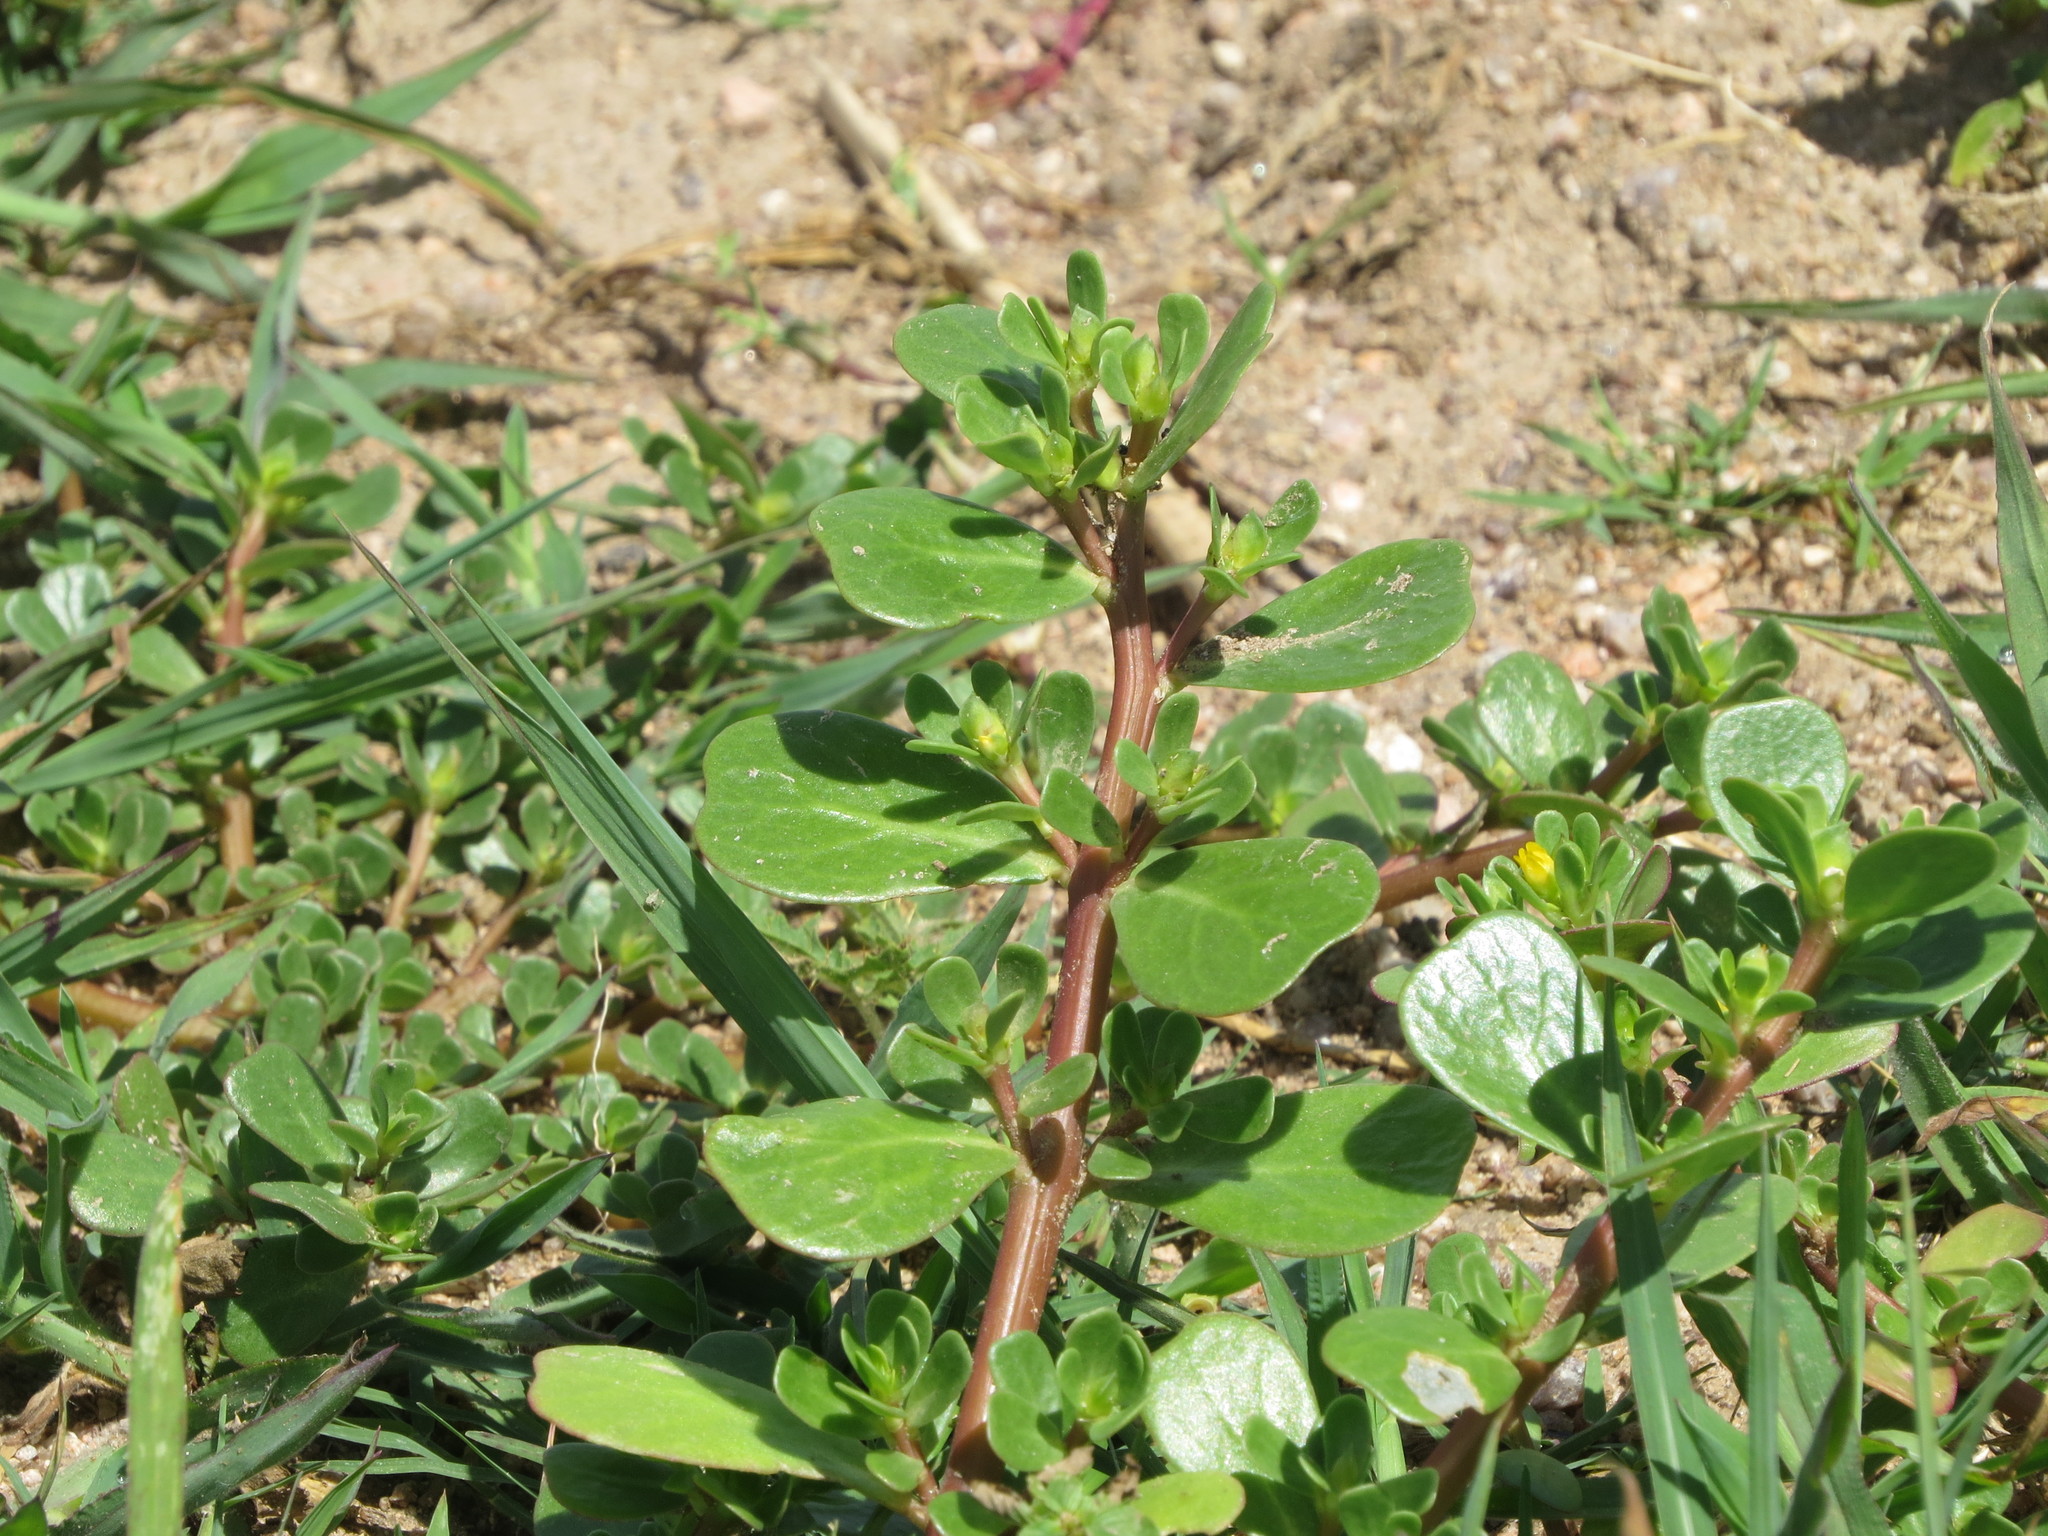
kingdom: Plantae
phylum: Tracheophyta
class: Magnoliopsida
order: Caryophyllales
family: Portulacaceae
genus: Portulaca
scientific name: Portulaca oleracea
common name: Common purslane
